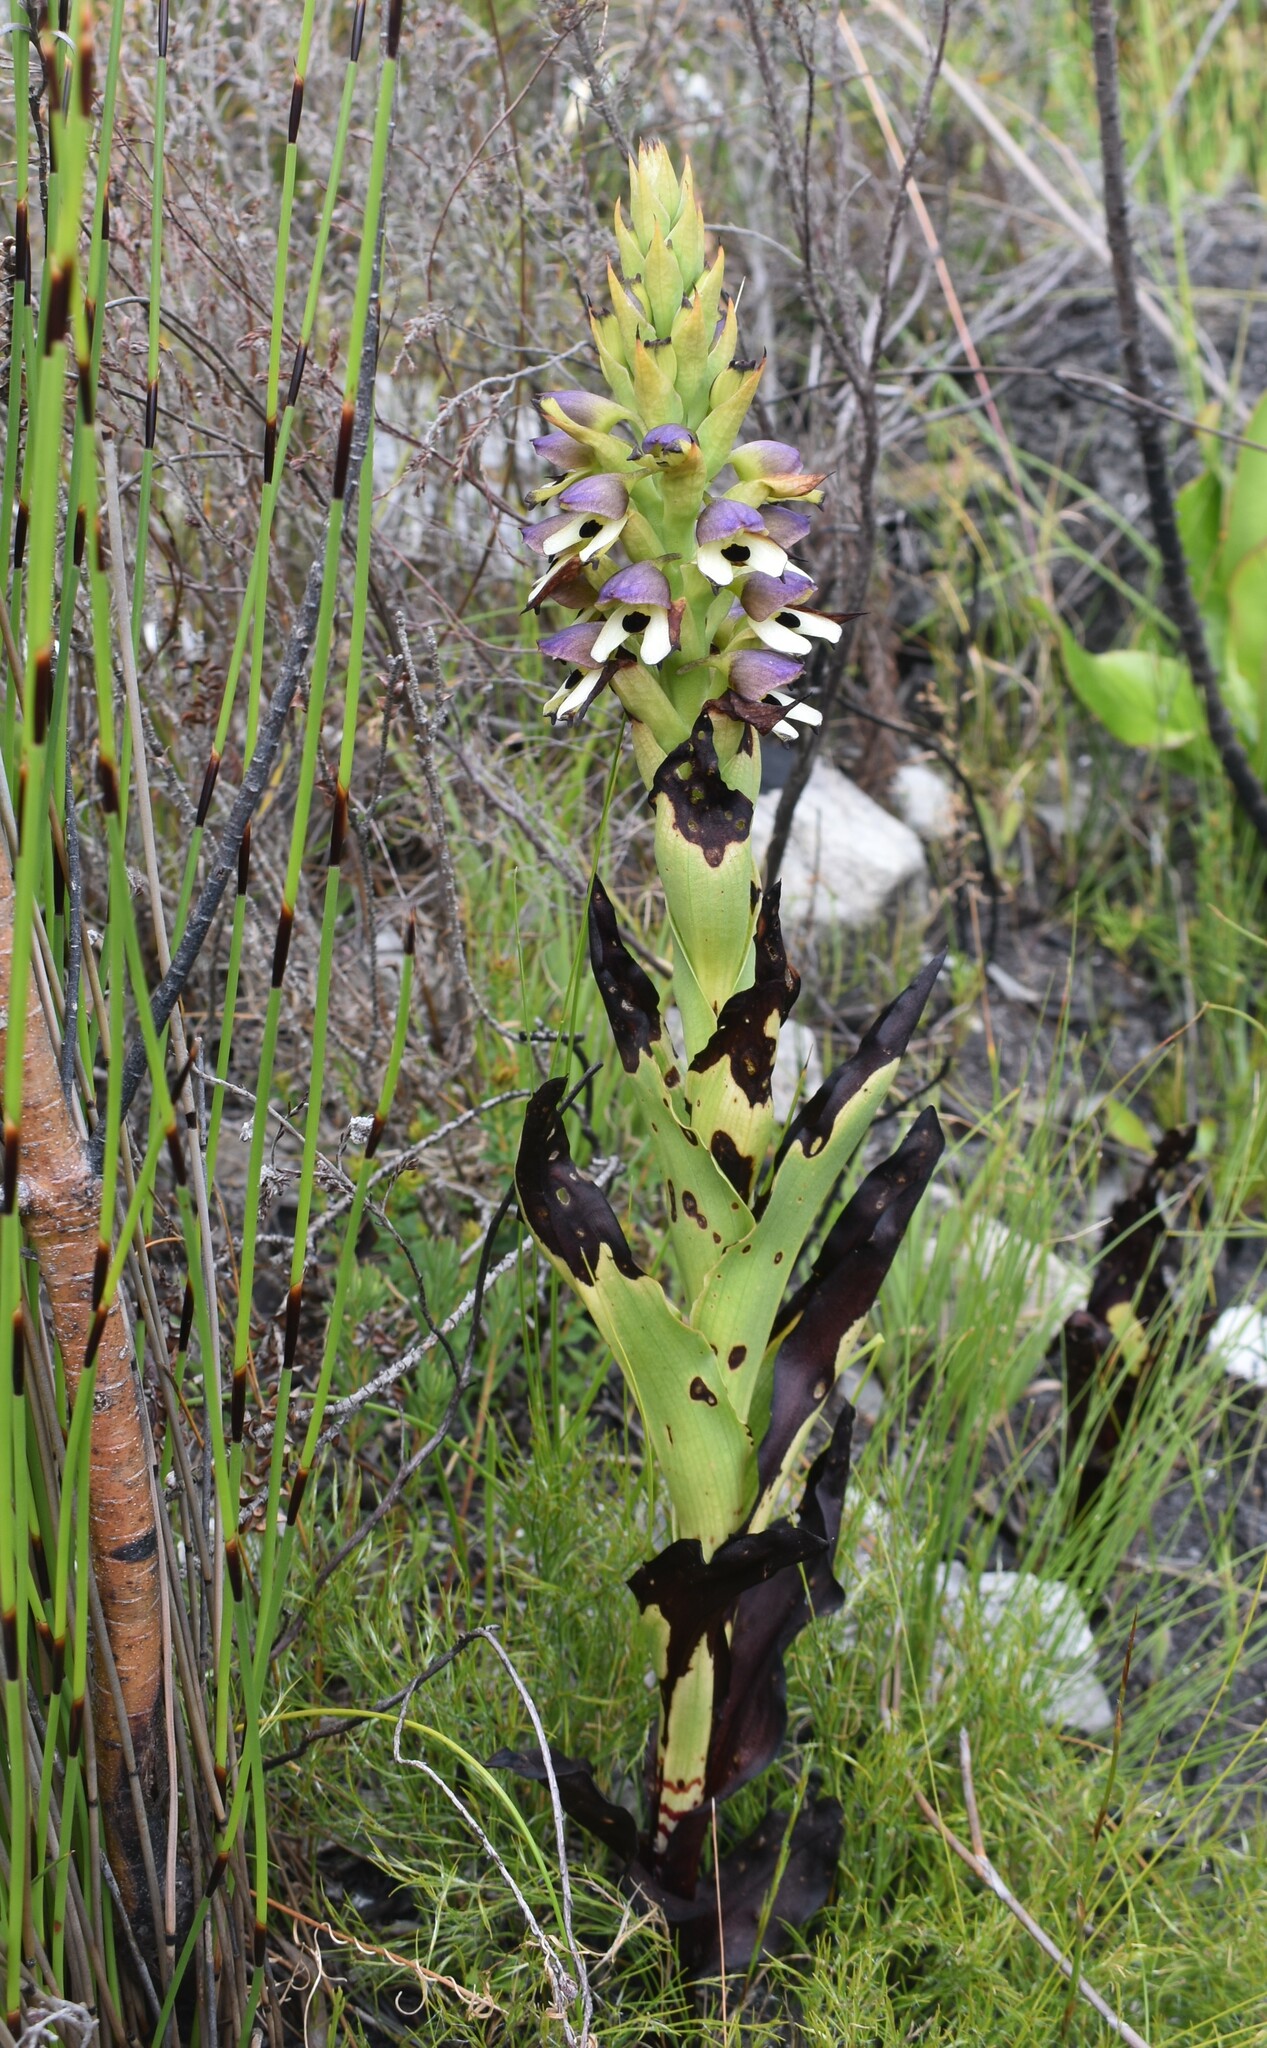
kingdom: Plantae
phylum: Tracheophyta
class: Liliopsida
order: Asparagales
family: Orchidaceae
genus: Disa
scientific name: Disa cornuta
